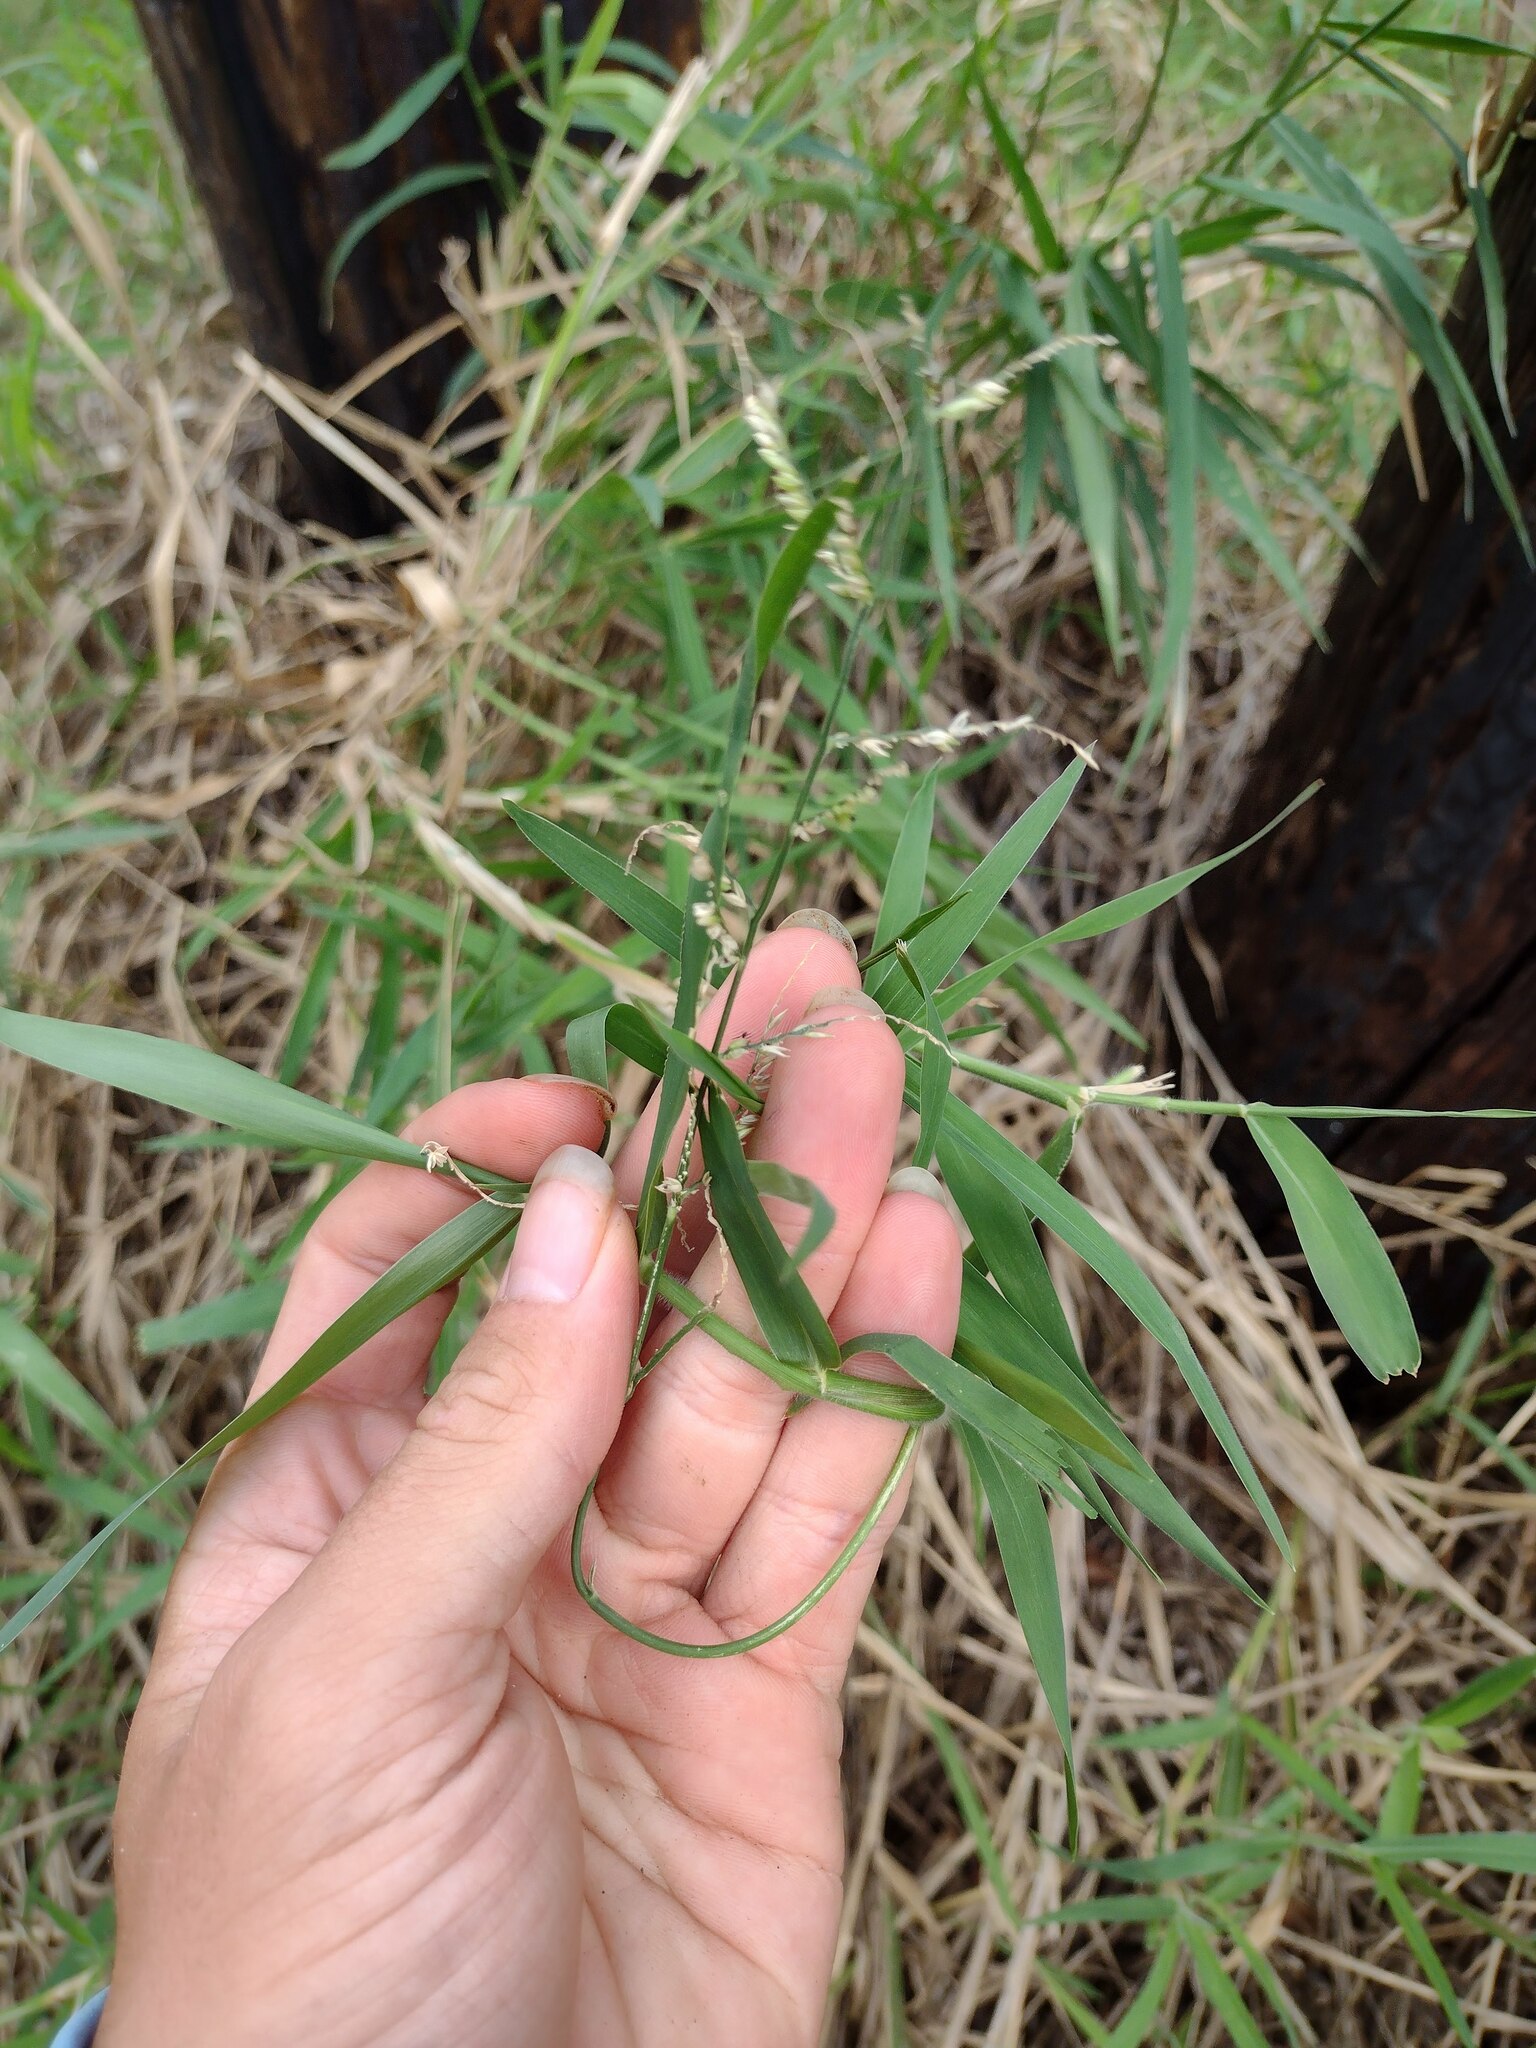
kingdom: Plantae
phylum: Tracheophyta
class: Liliopsida
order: Poales
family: Poaceae
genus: Urochloa
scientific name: Urochloa mutica
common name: Para grass
